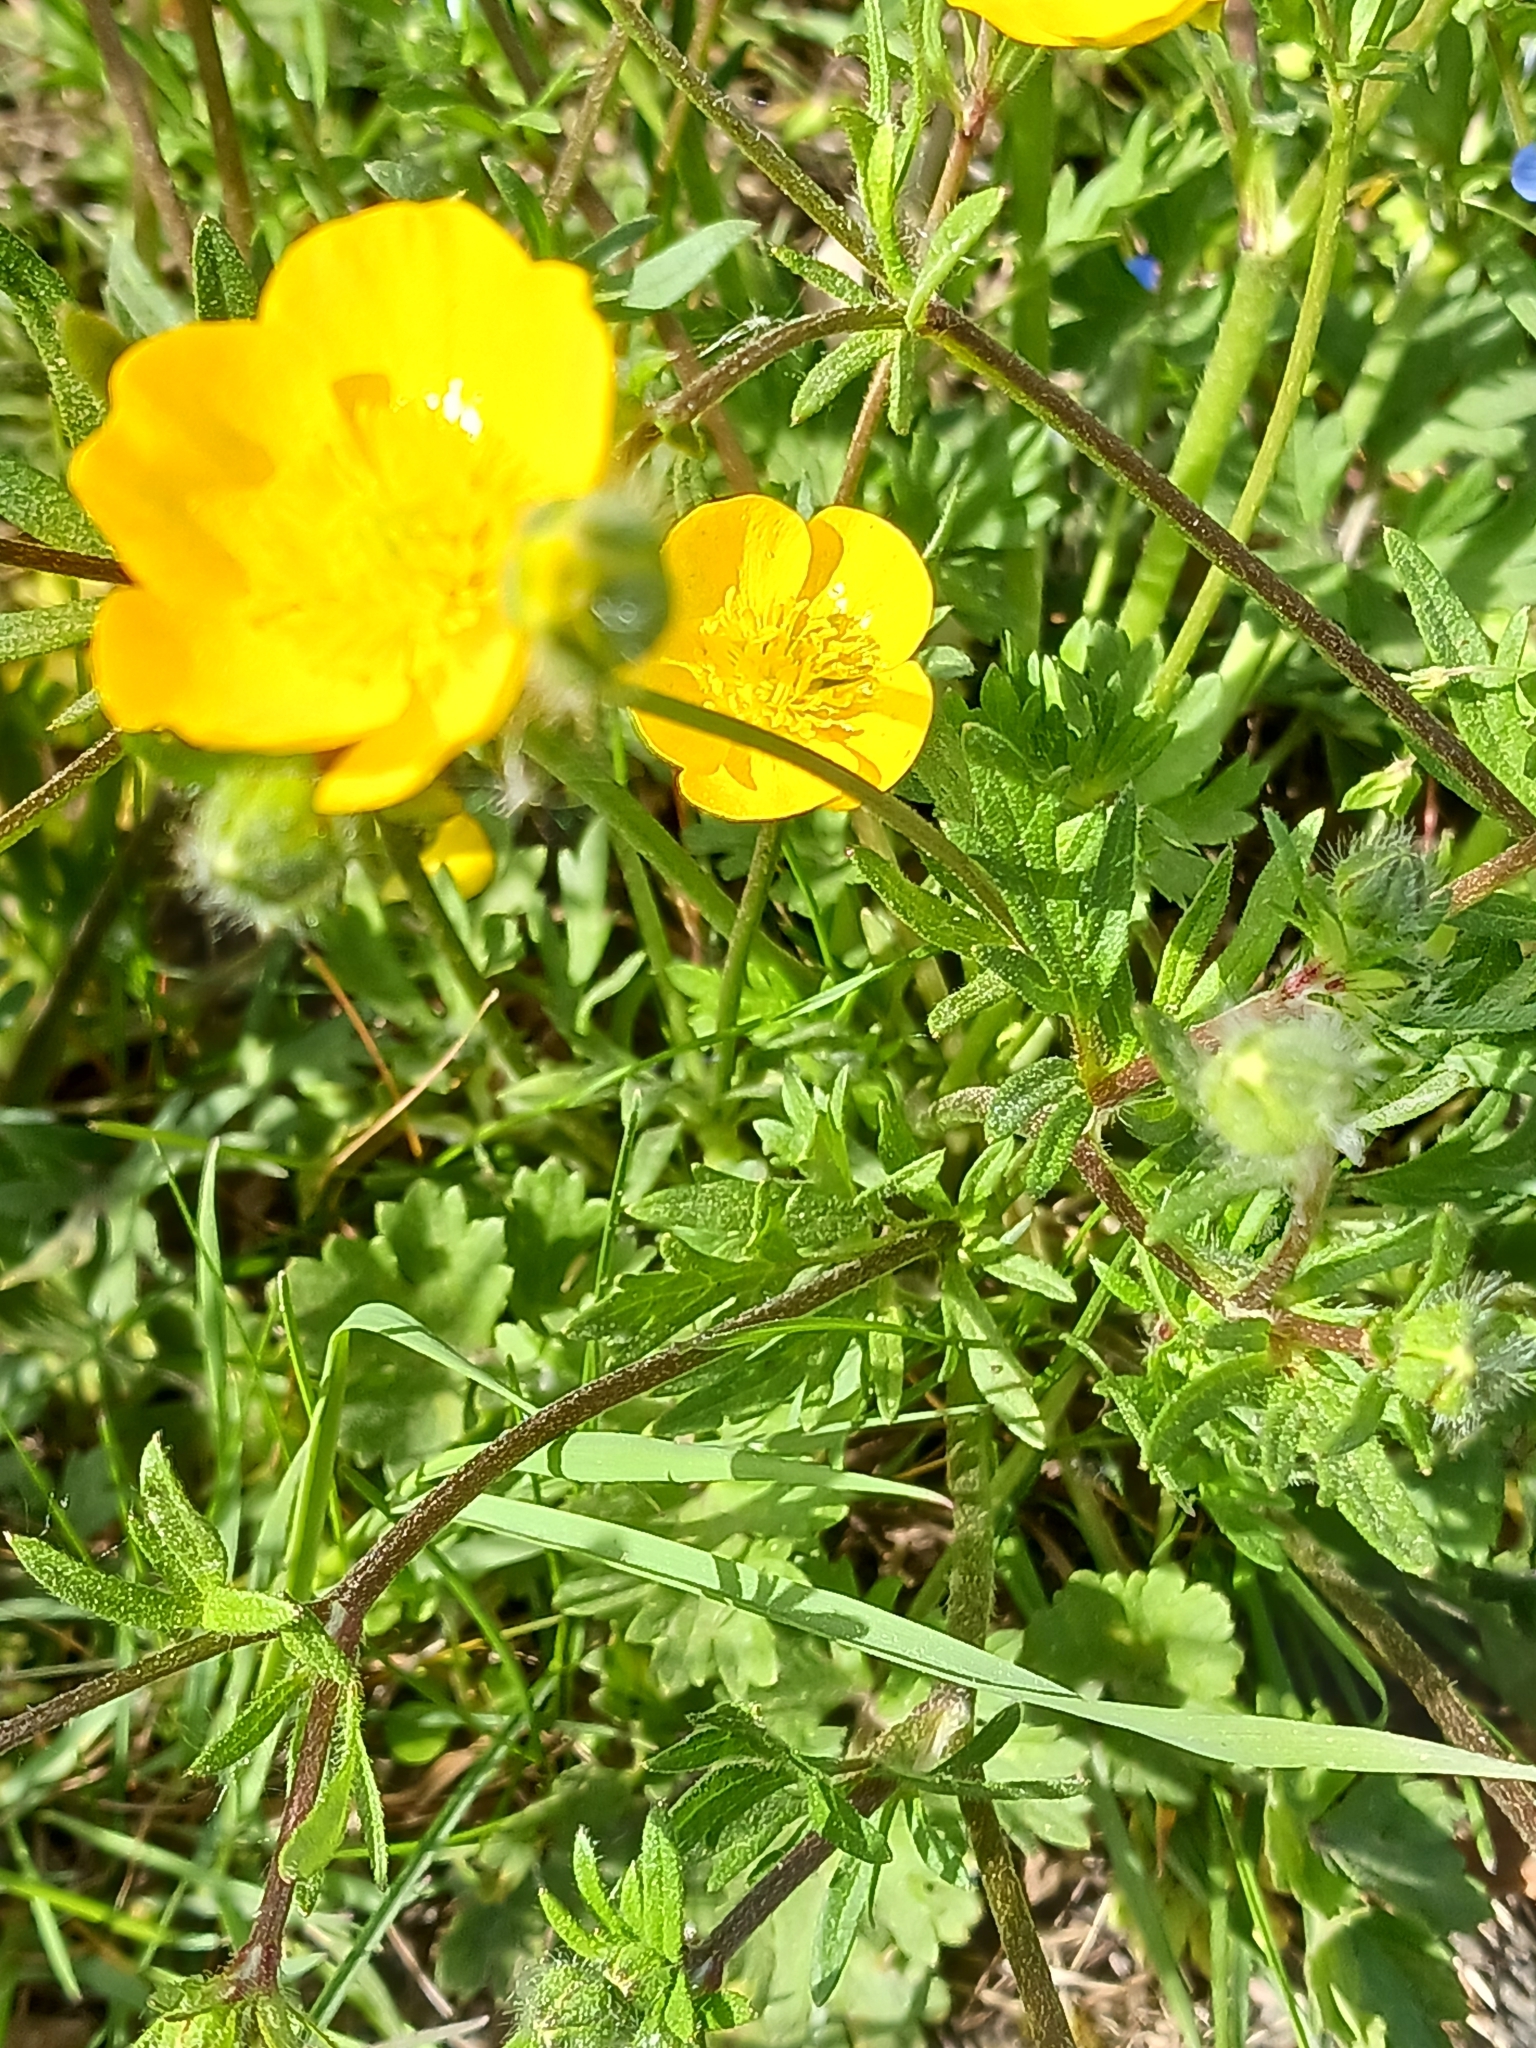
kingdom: Plantae
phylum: Tracheophyta
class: Magnoliopsida
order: Ranunculales
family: Ranunculaceae
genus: Ranunculus
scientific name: Ranunculus bulbosus
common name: Bulbous buttercup
